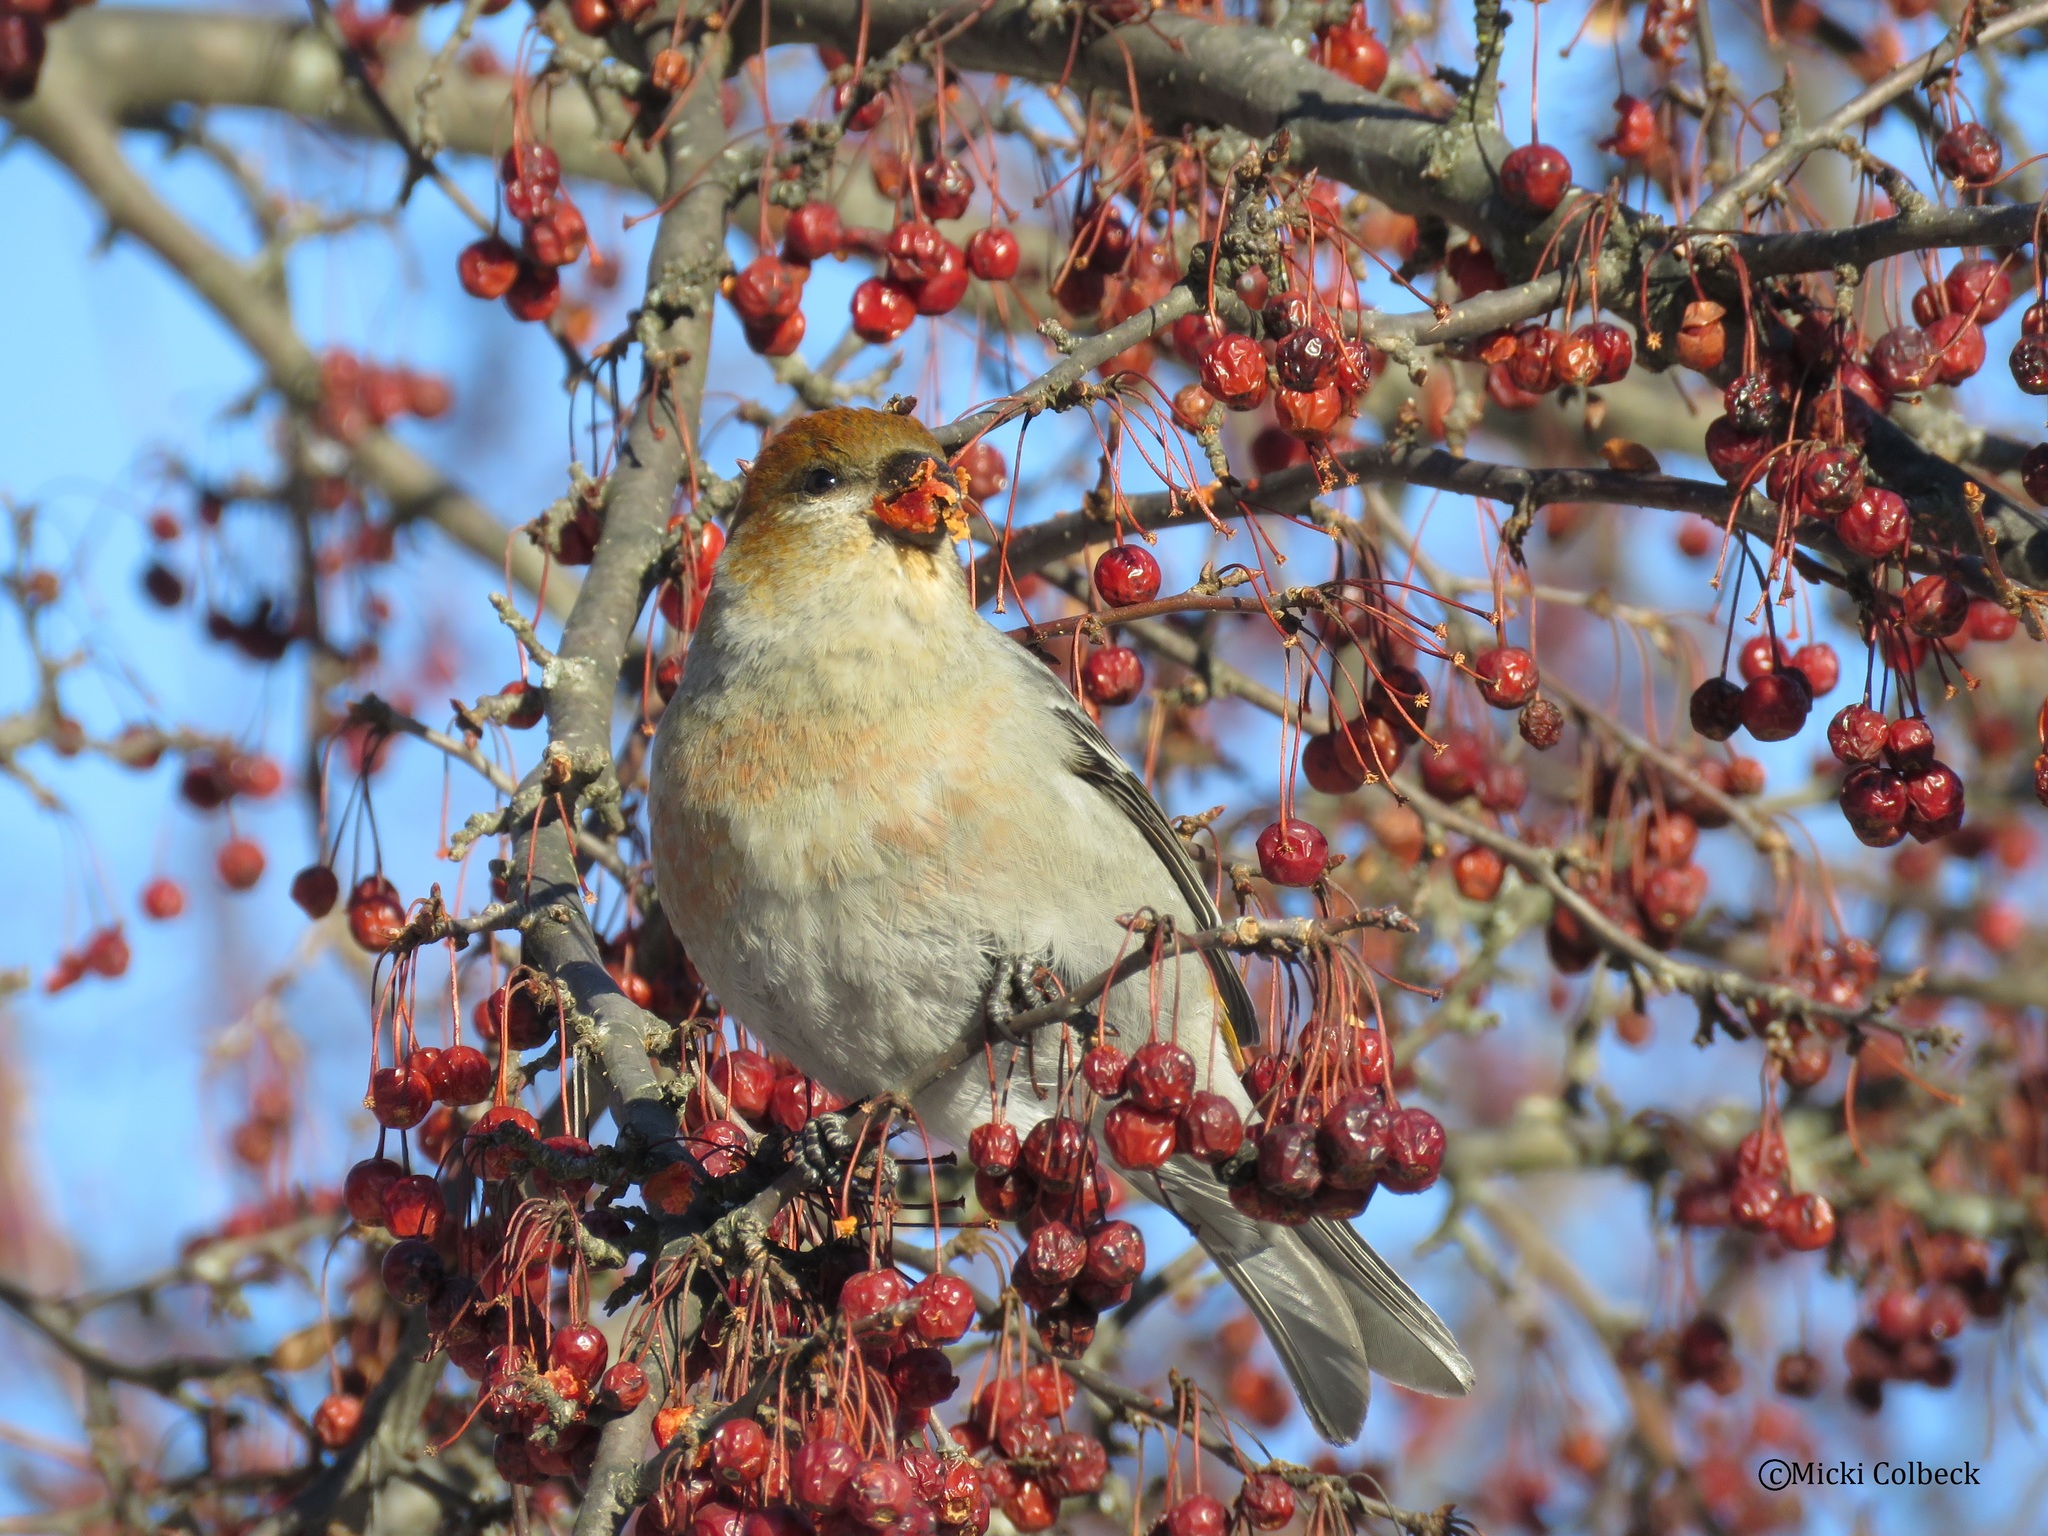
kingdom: Animalia
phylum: Chordata
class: Aves
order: Passeriformes
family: Fringillidae
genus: Pinicola
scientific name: Pinicola enucleator
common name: Pine grosbeak
